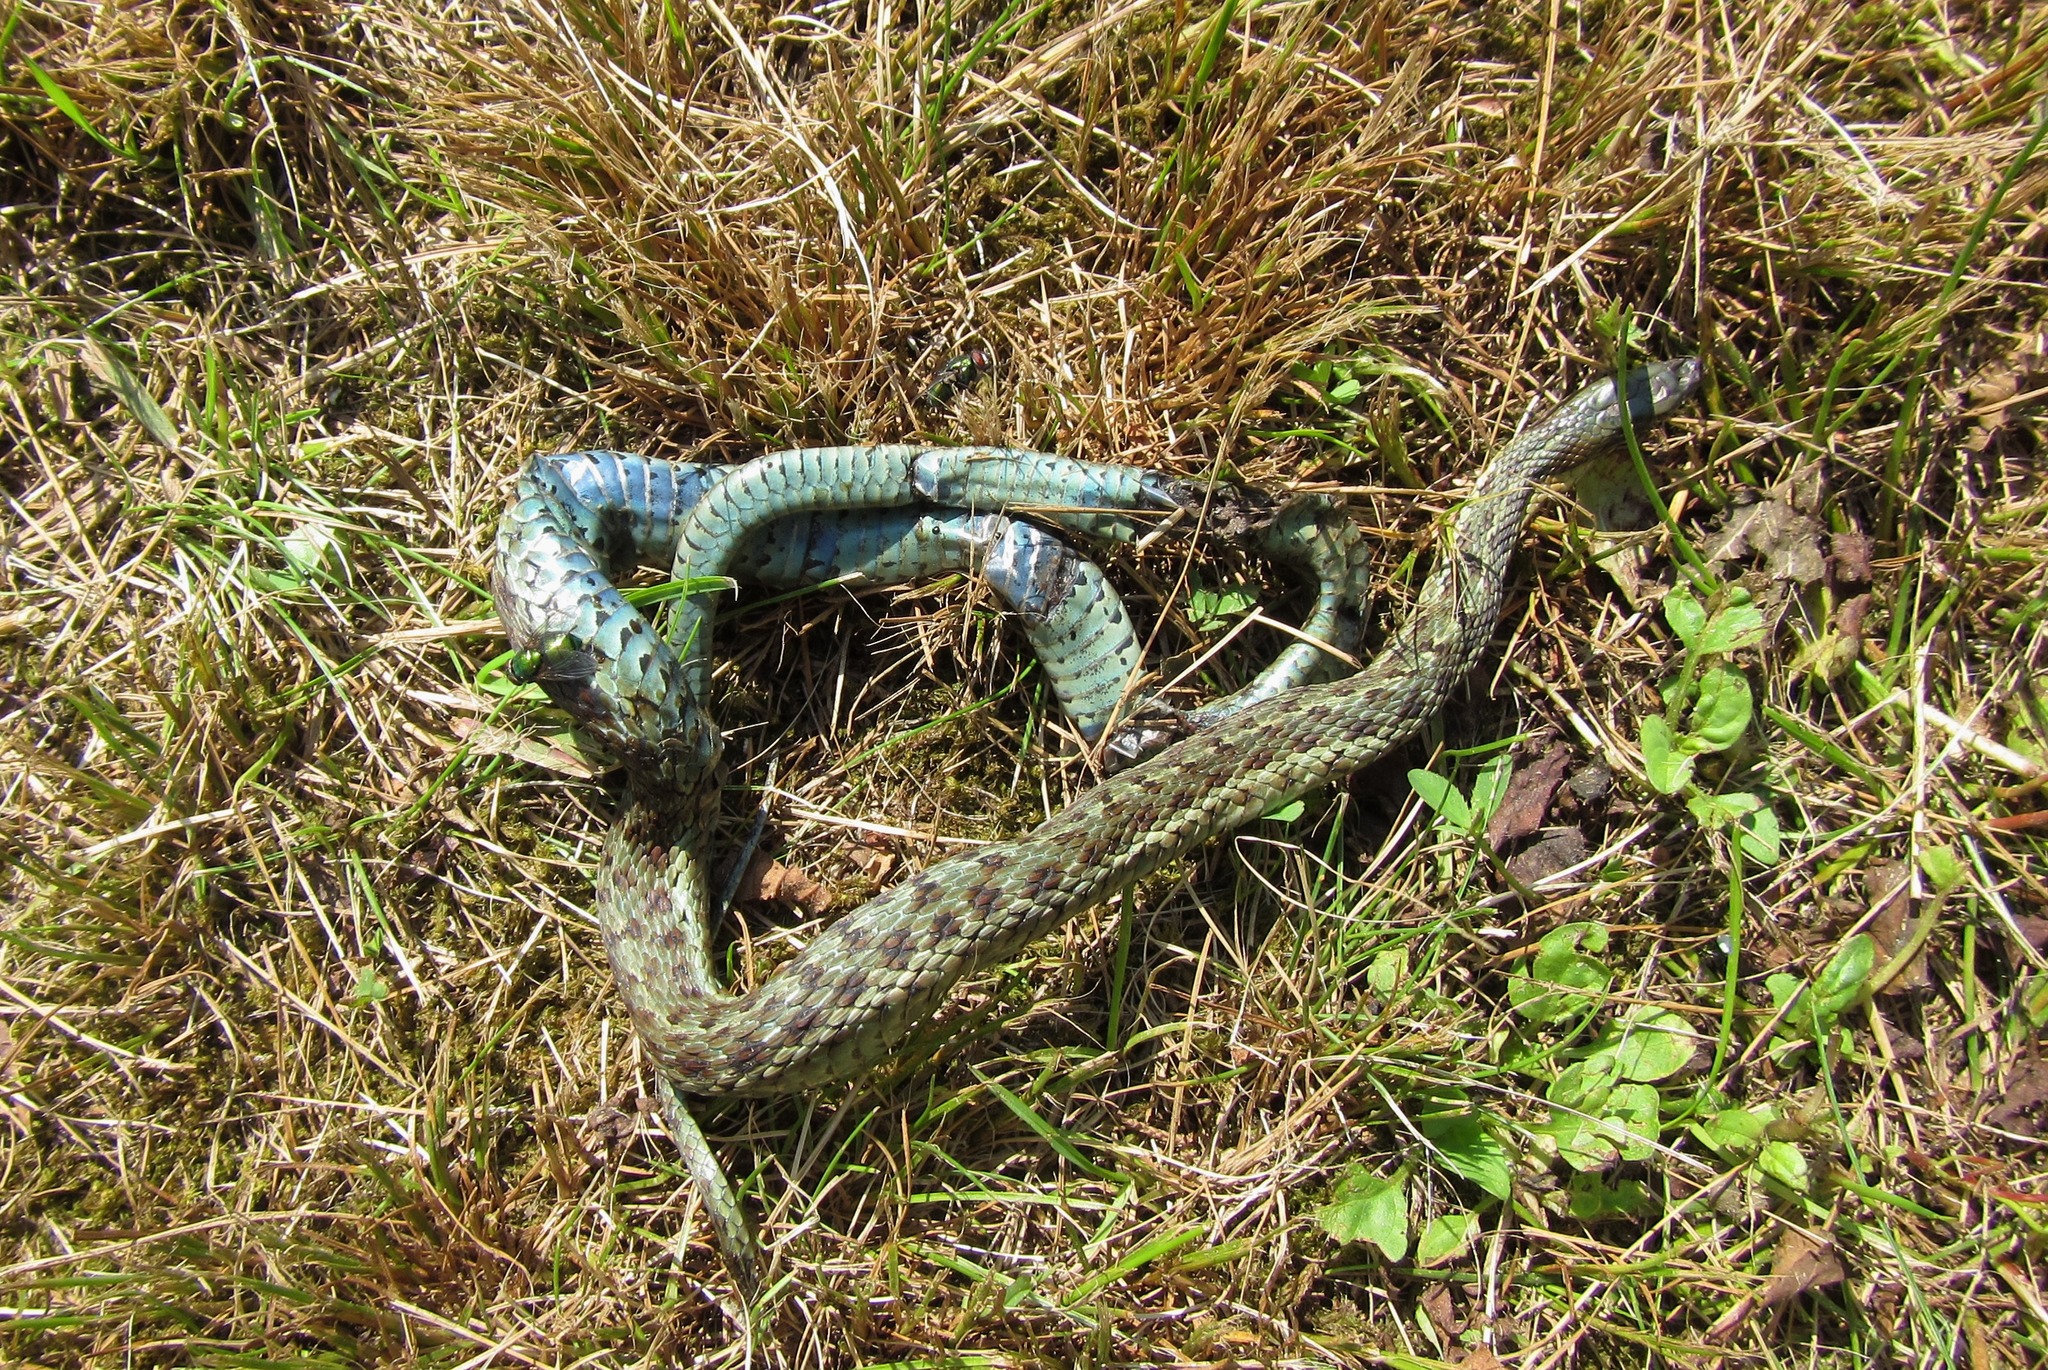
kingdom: Animalia
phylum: Chordata
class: Squamata
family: Colubridae
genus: Thamnophis
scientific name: Thamnophis sirtalis
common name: Common garter snake
